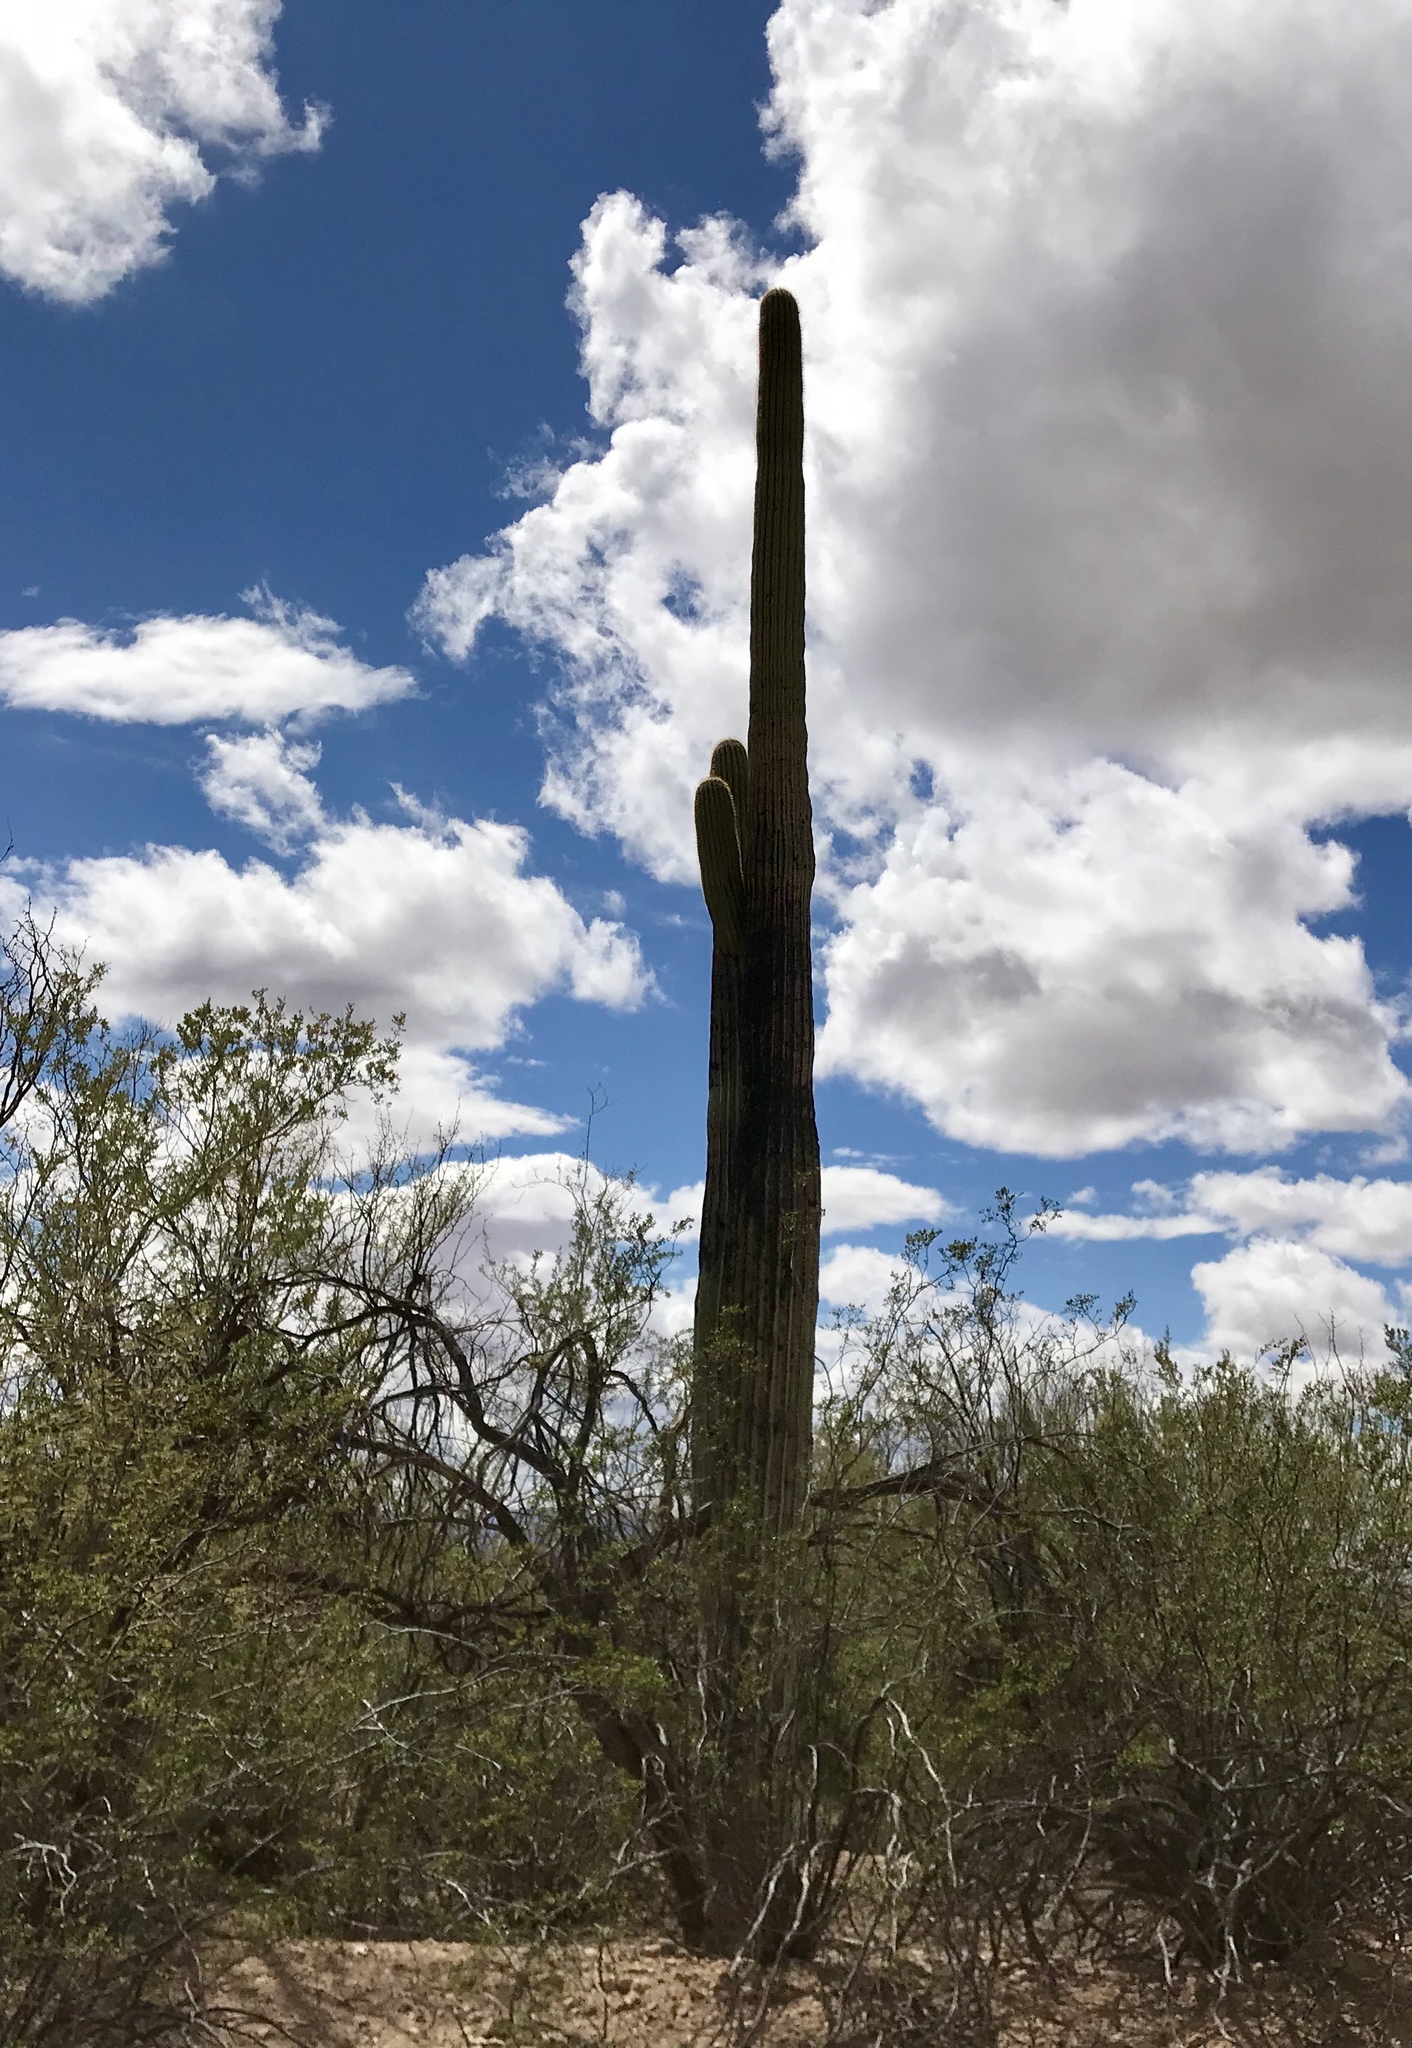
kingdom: Plantae
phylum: Tracheophyta
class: Magnoliopsida
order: Caryophyllales
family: Cactaceae
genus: Carnegiea
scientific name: Carnegiea gigantea
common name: Saguaro
